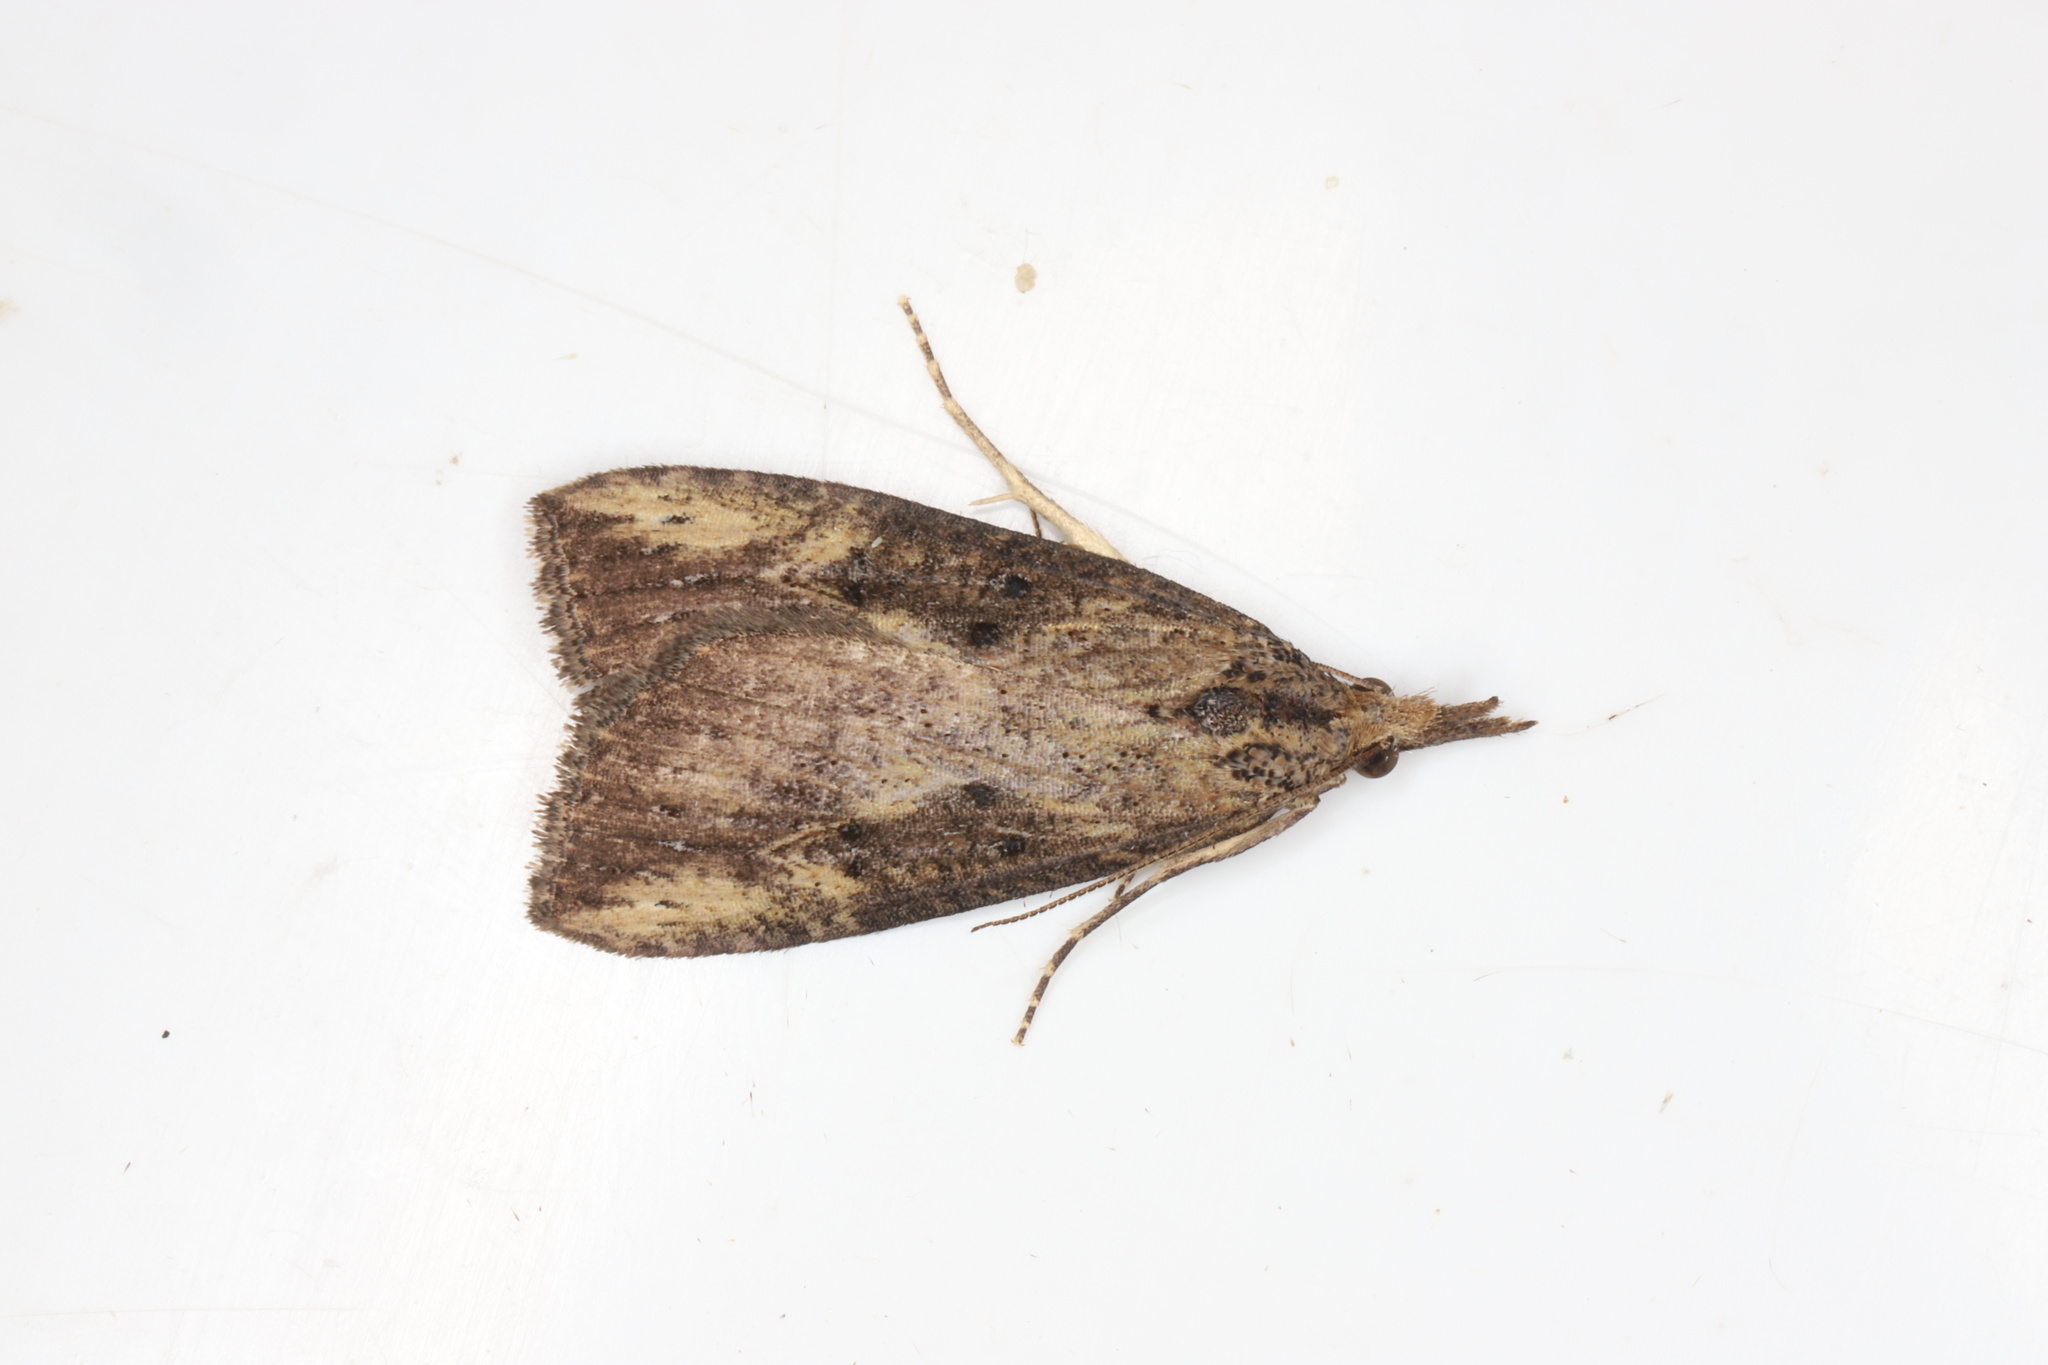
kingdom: Animalia
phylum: Arthropoda
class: Insecta
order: Lepidoptera
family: Erebidae
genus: Hypena
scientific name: Hypena humuli
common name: Hop vine snout
